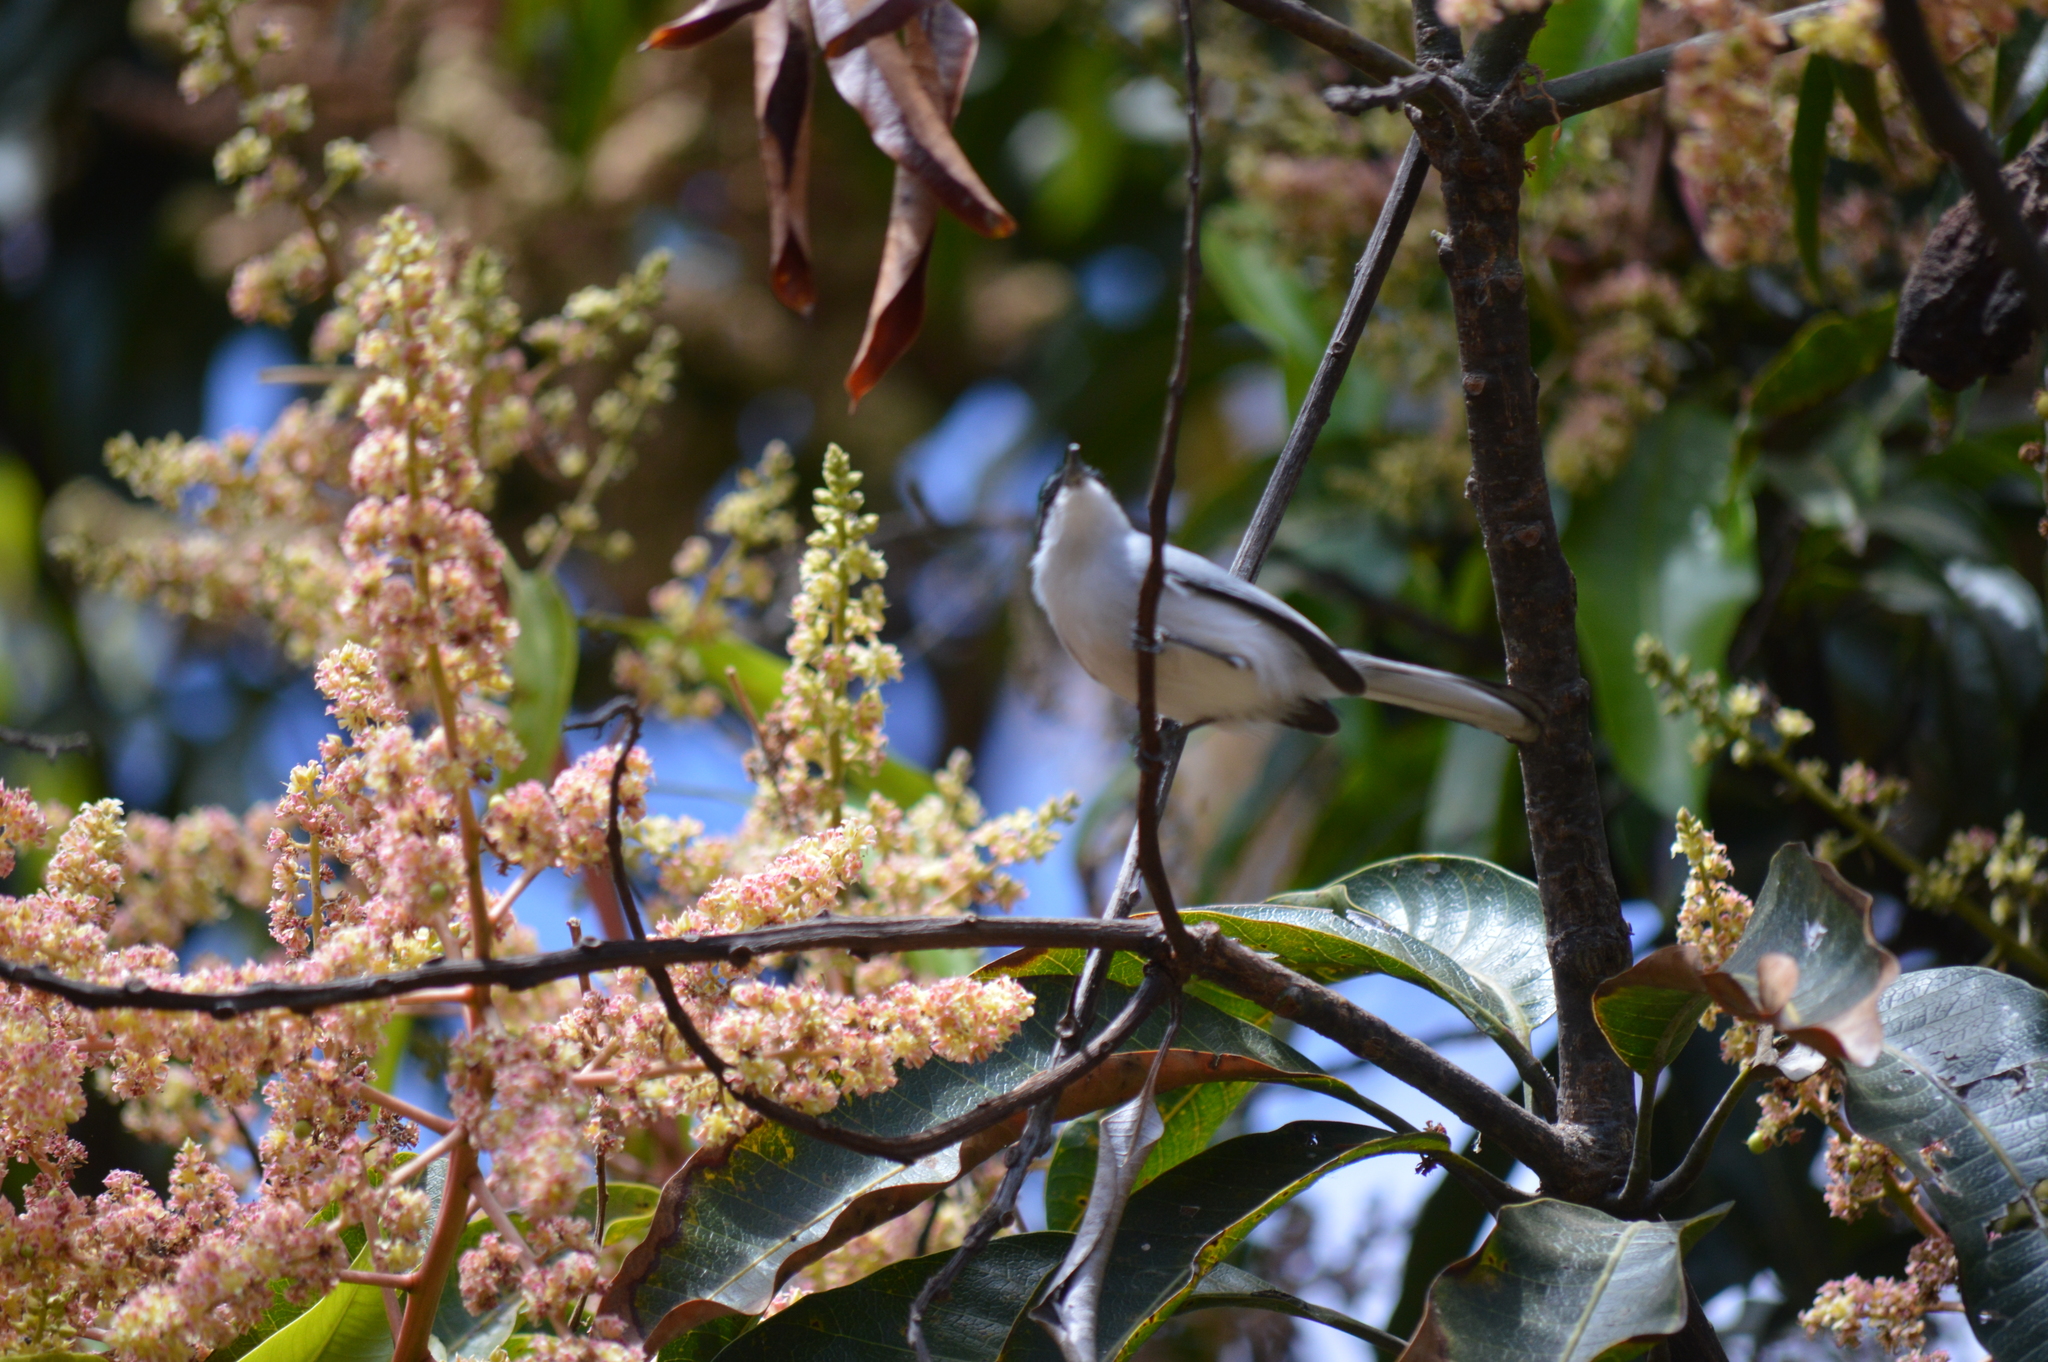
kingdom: Animalia
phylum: Chordata
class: Aves
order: Passeriformes
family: Polioptilidae
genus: Polioptila
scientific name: Polioptila dumicola
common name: Masked gnatcatcher
